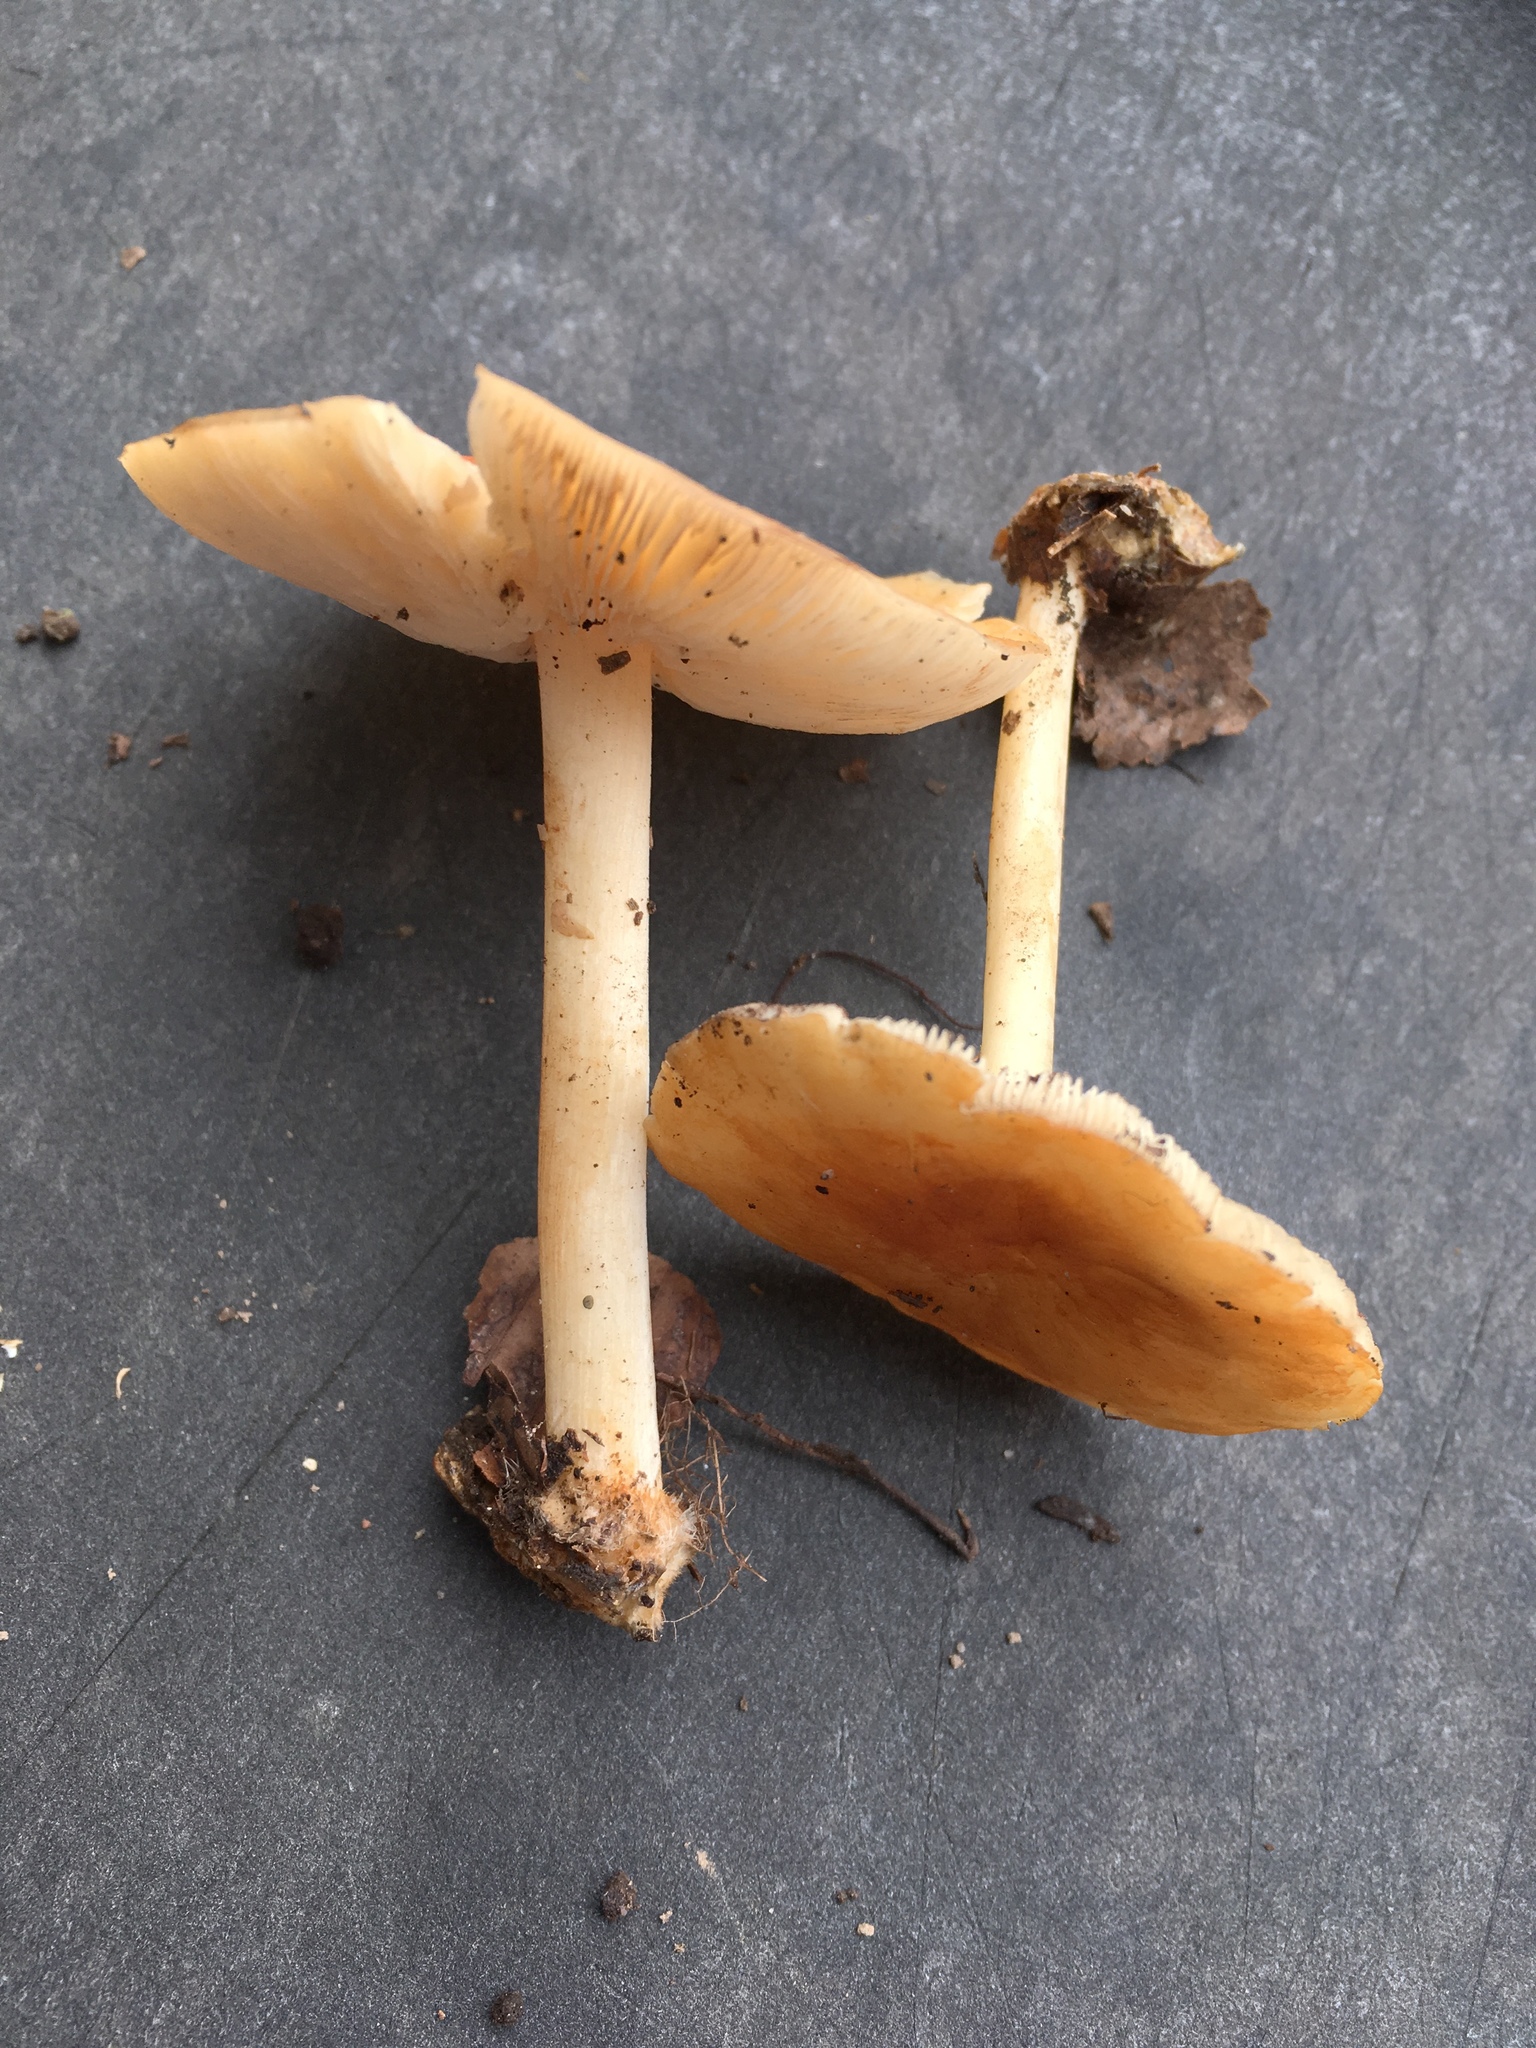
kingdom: Fungi
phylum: Basidiomycota
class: Agaricomycetes
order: Agaricales
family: Marasmiaceae
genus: Marasmius
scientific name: Marasmius strictipes
